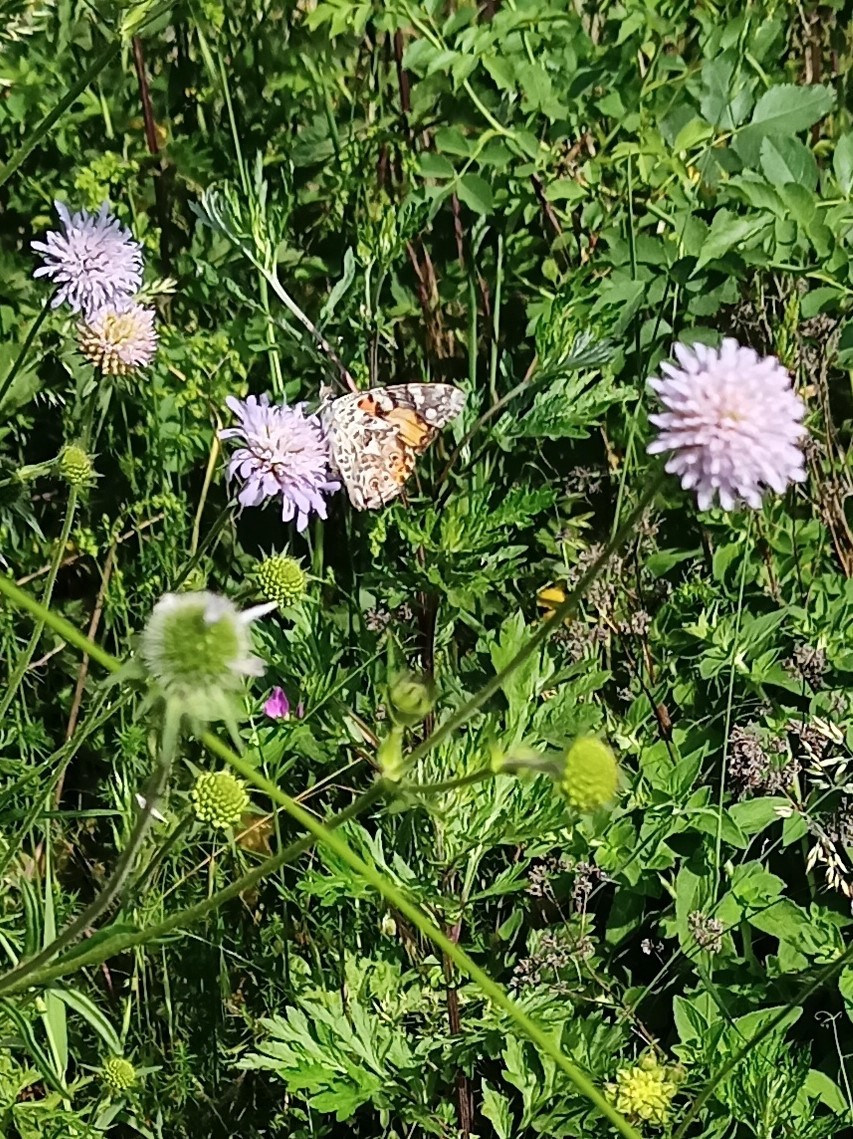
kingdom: Animalia
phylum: Arthropoda
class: Insecta
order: Lepidoptera
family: Nymphalidae
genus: Vanessa
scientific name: Vanessa cardui
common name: Painted lady
